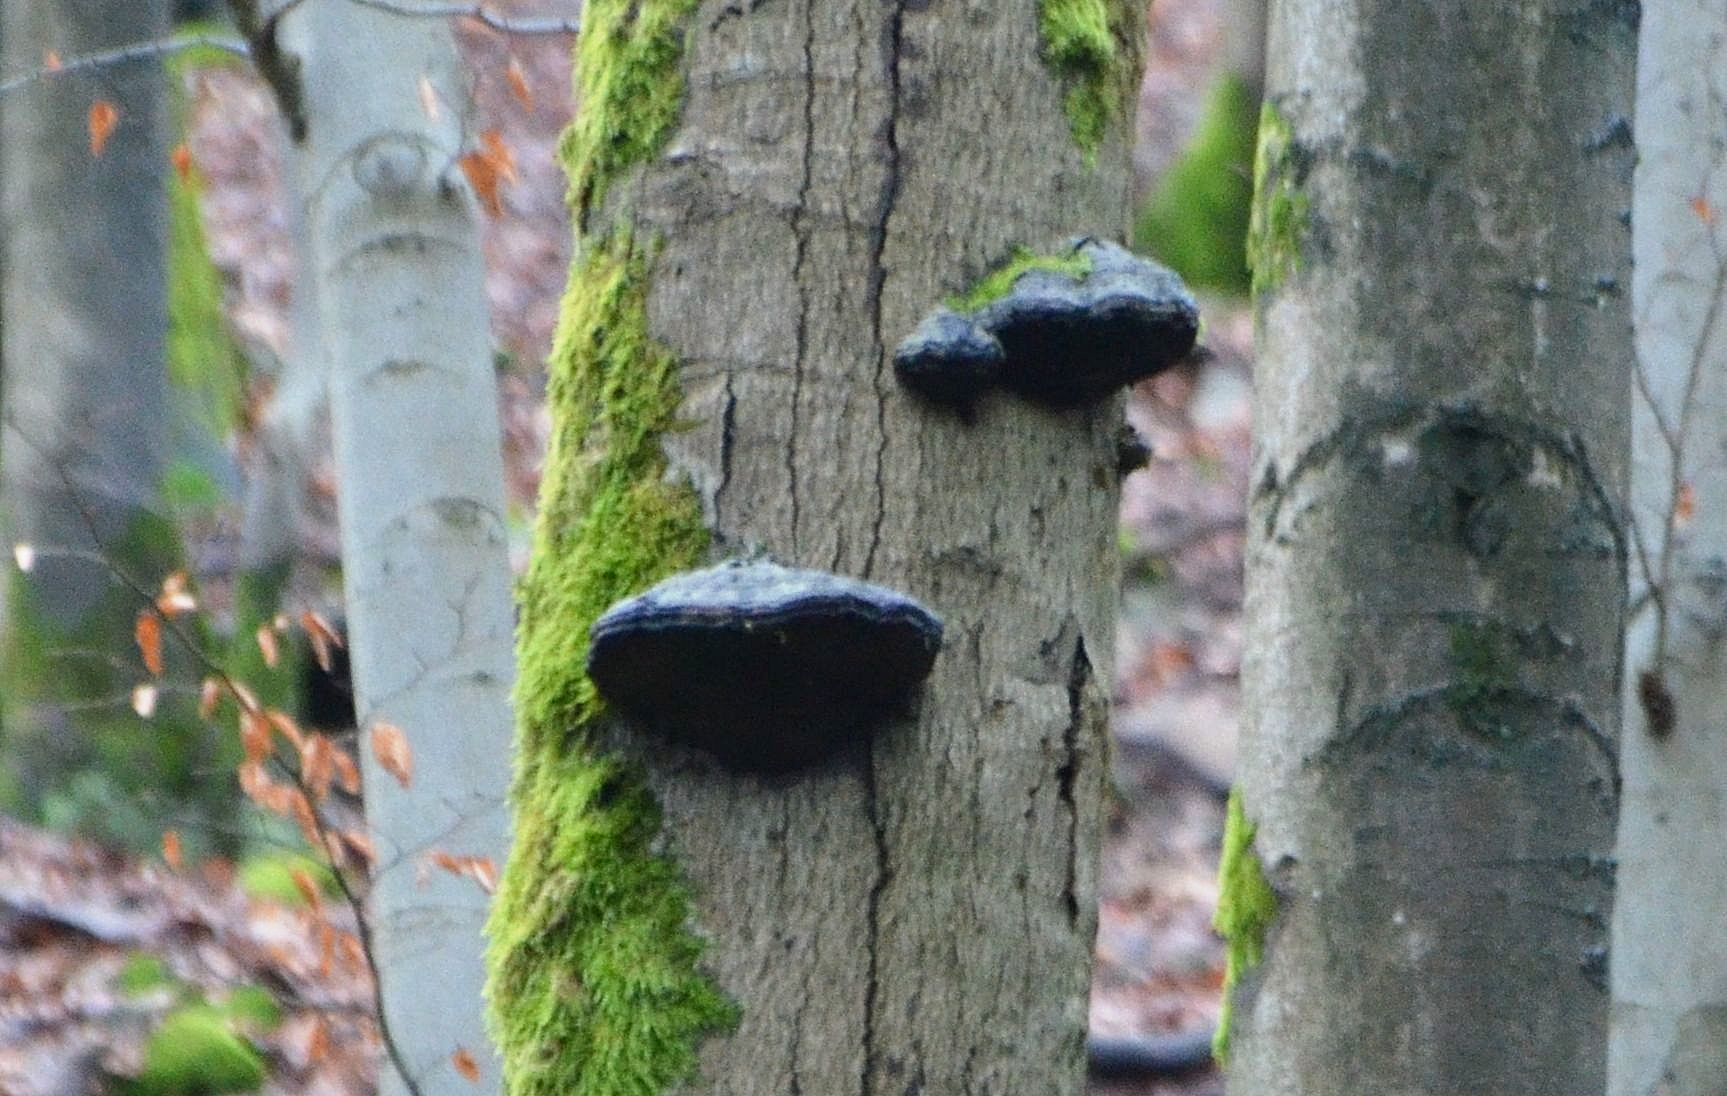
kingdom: Fungi
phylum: Basidiomycota
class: Agaricomycetes
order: Polyporales
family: Polyporaceae
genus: Fomes
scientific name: Fomes fomentarius
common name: Hoof fungus
